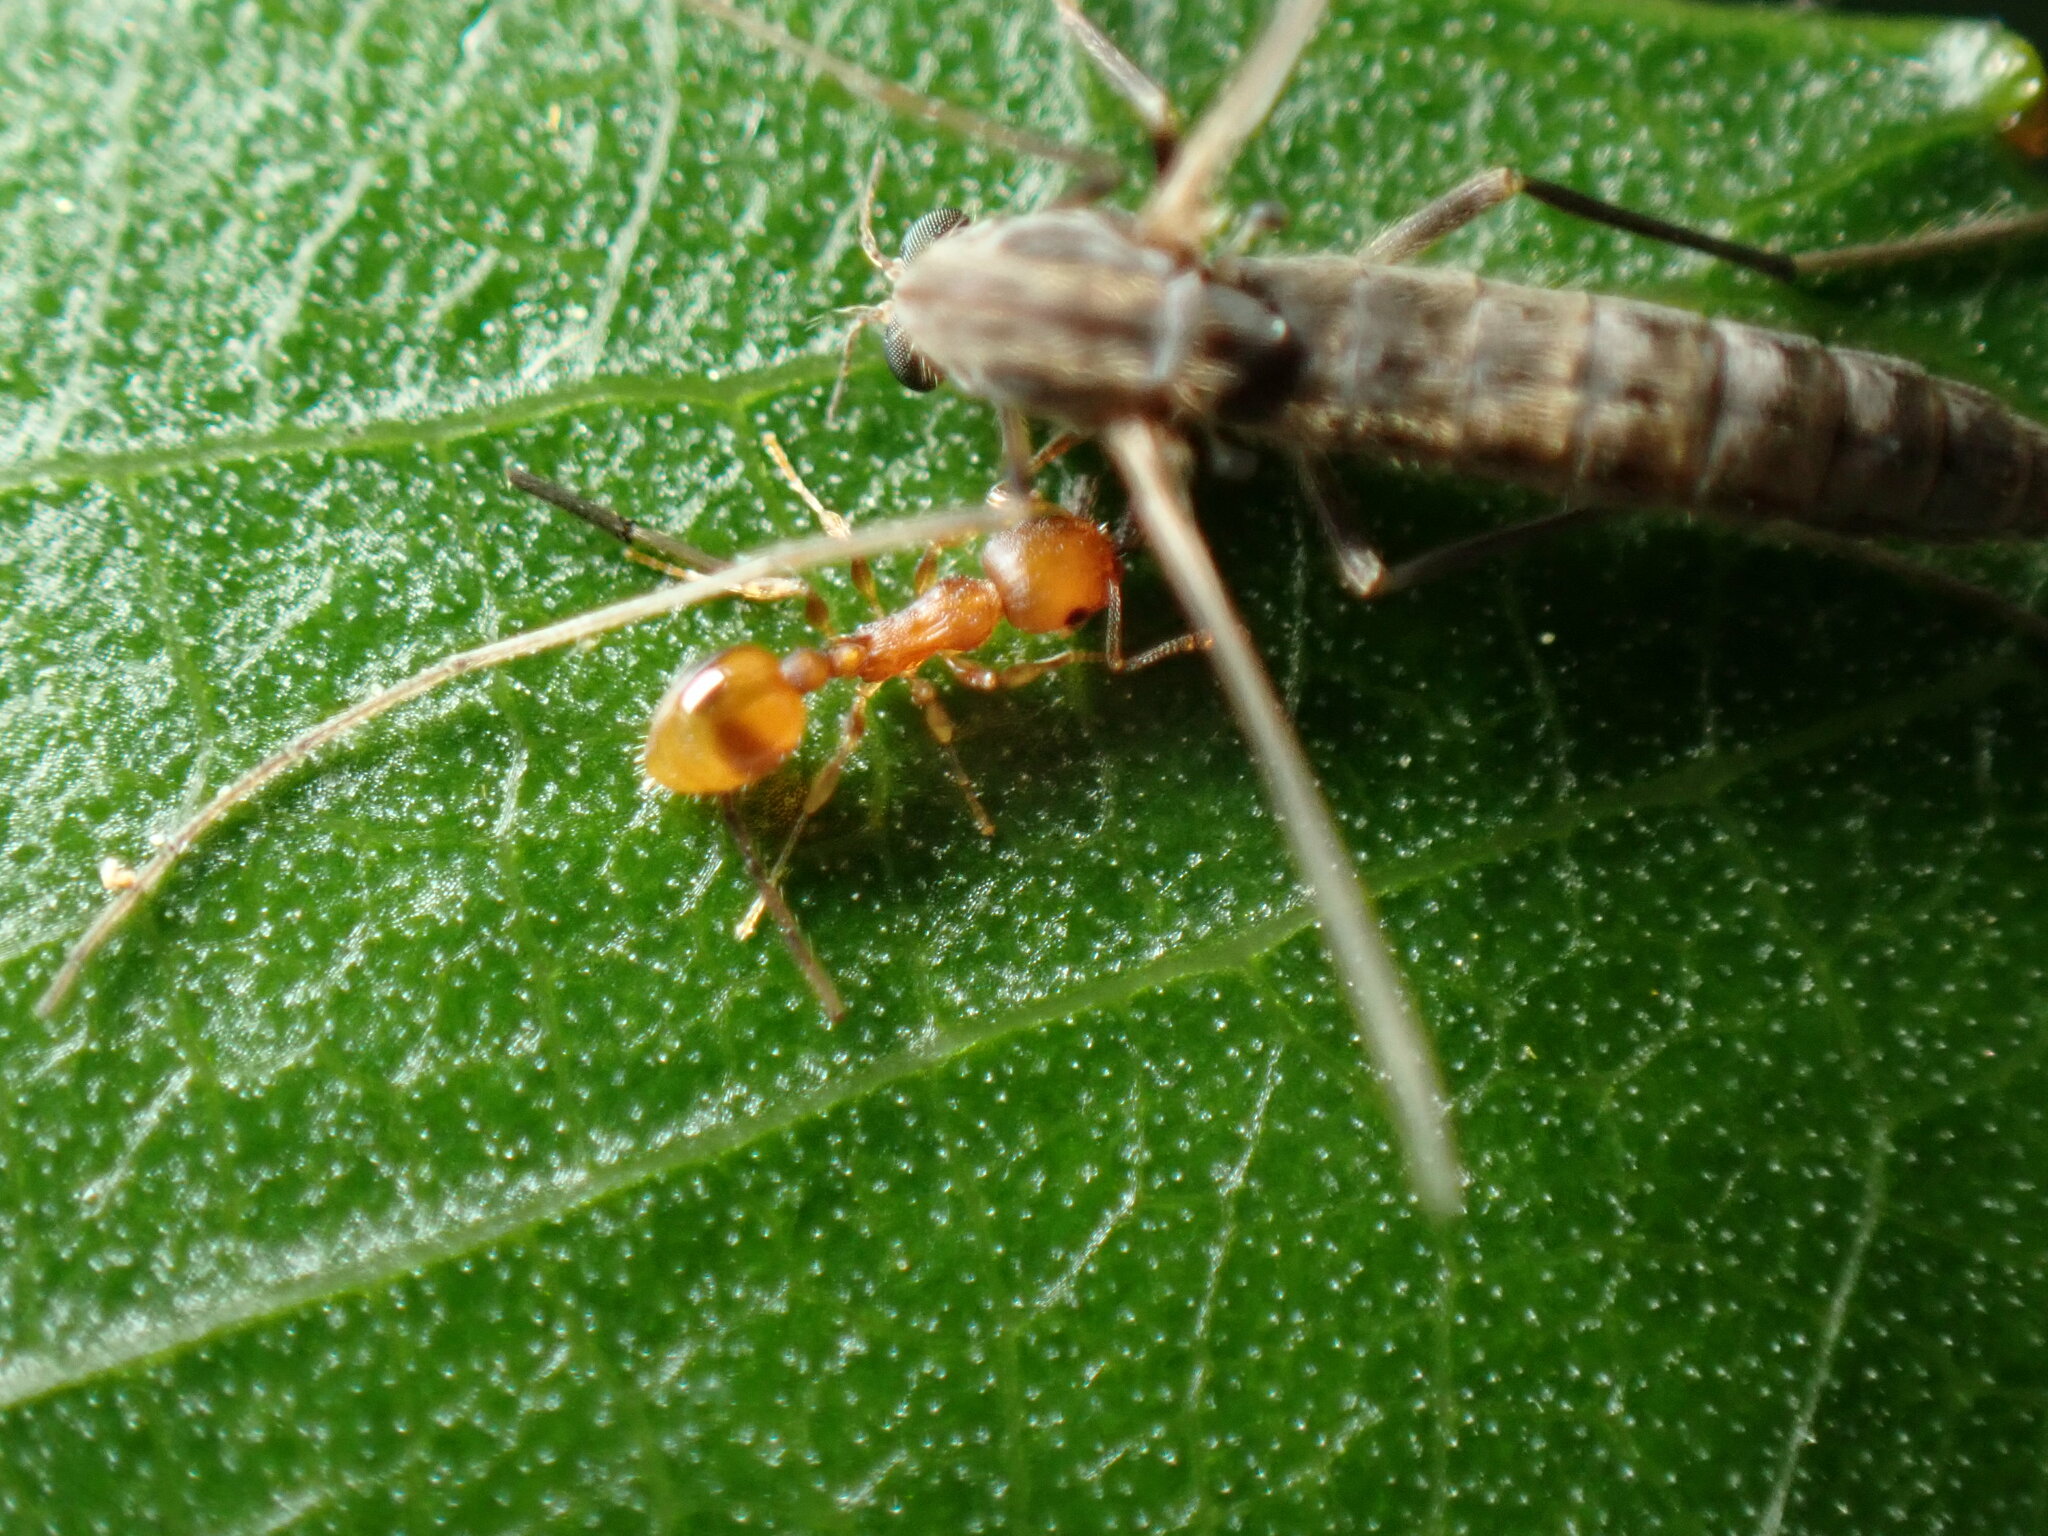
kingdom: Animalia
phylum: Arthropoda
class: Insecta
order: Hymenoptera
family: Formicidae
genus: Temnothorax
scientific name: Temnothorax curvispinosus
